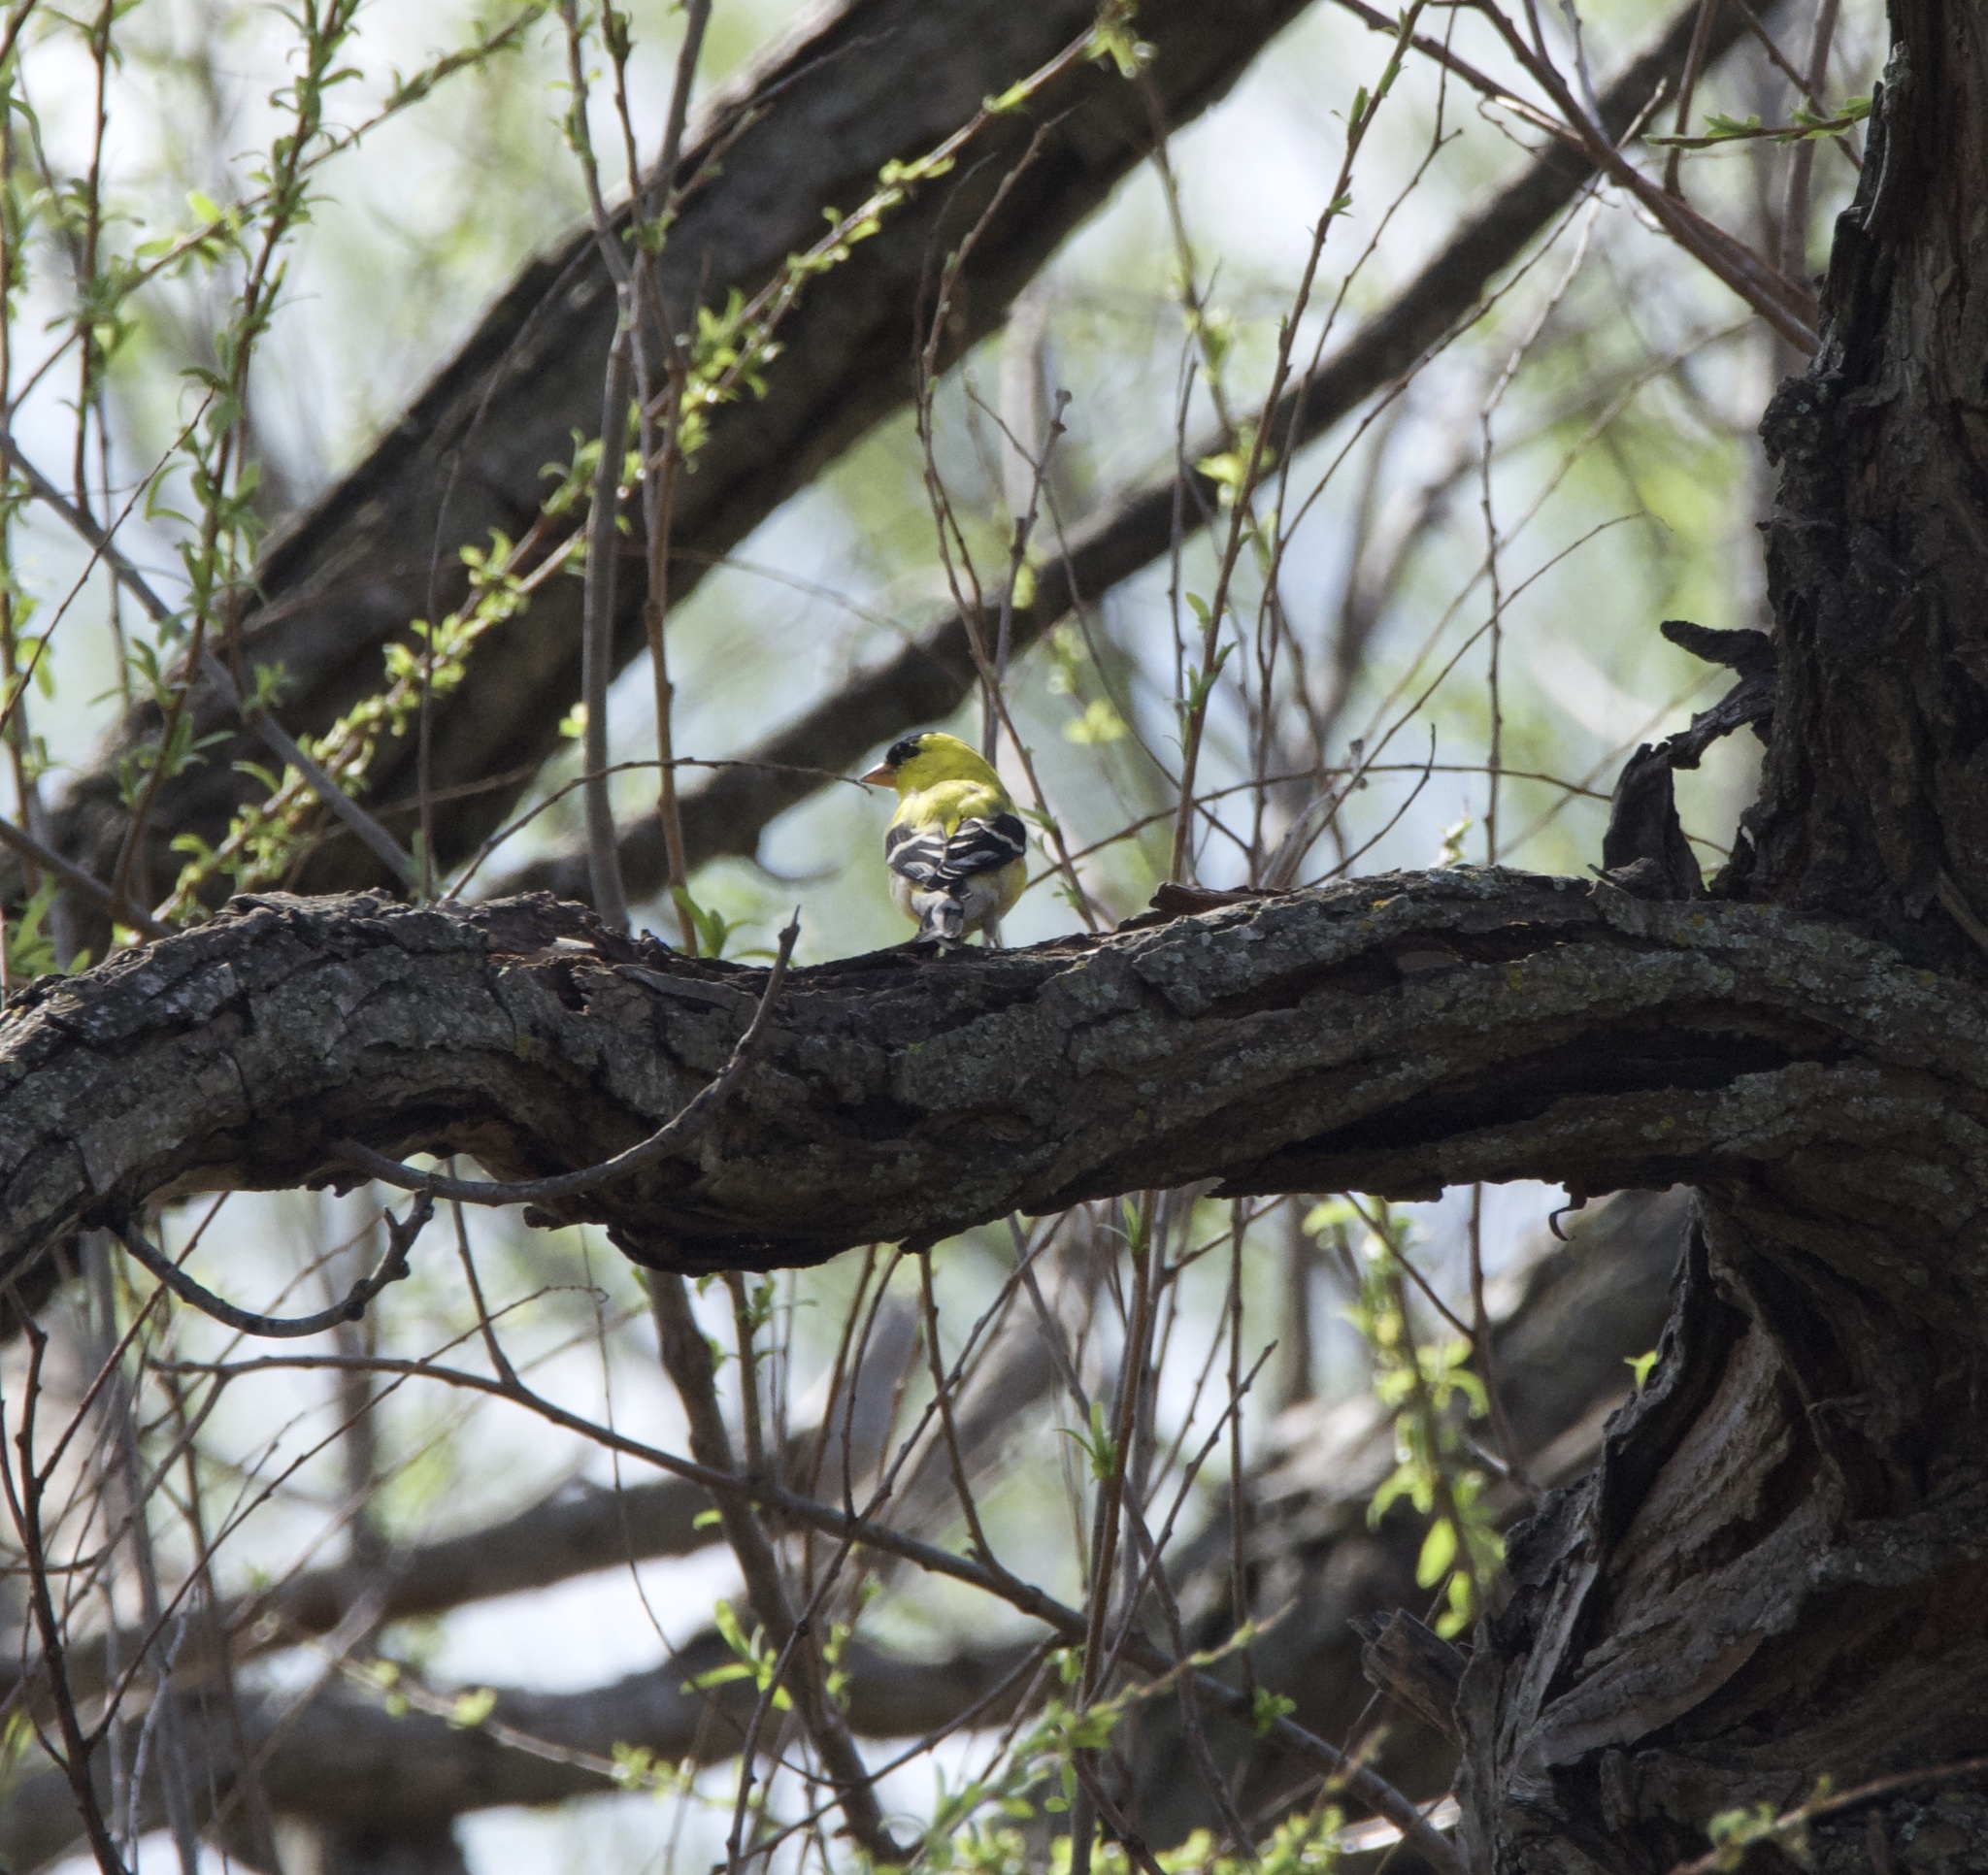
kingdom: Animalia
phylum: Chordata
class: Aves
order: Passeriformes
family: Fringillidae
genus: Spinus
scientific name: Spinus tristis
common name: American goldfinch
